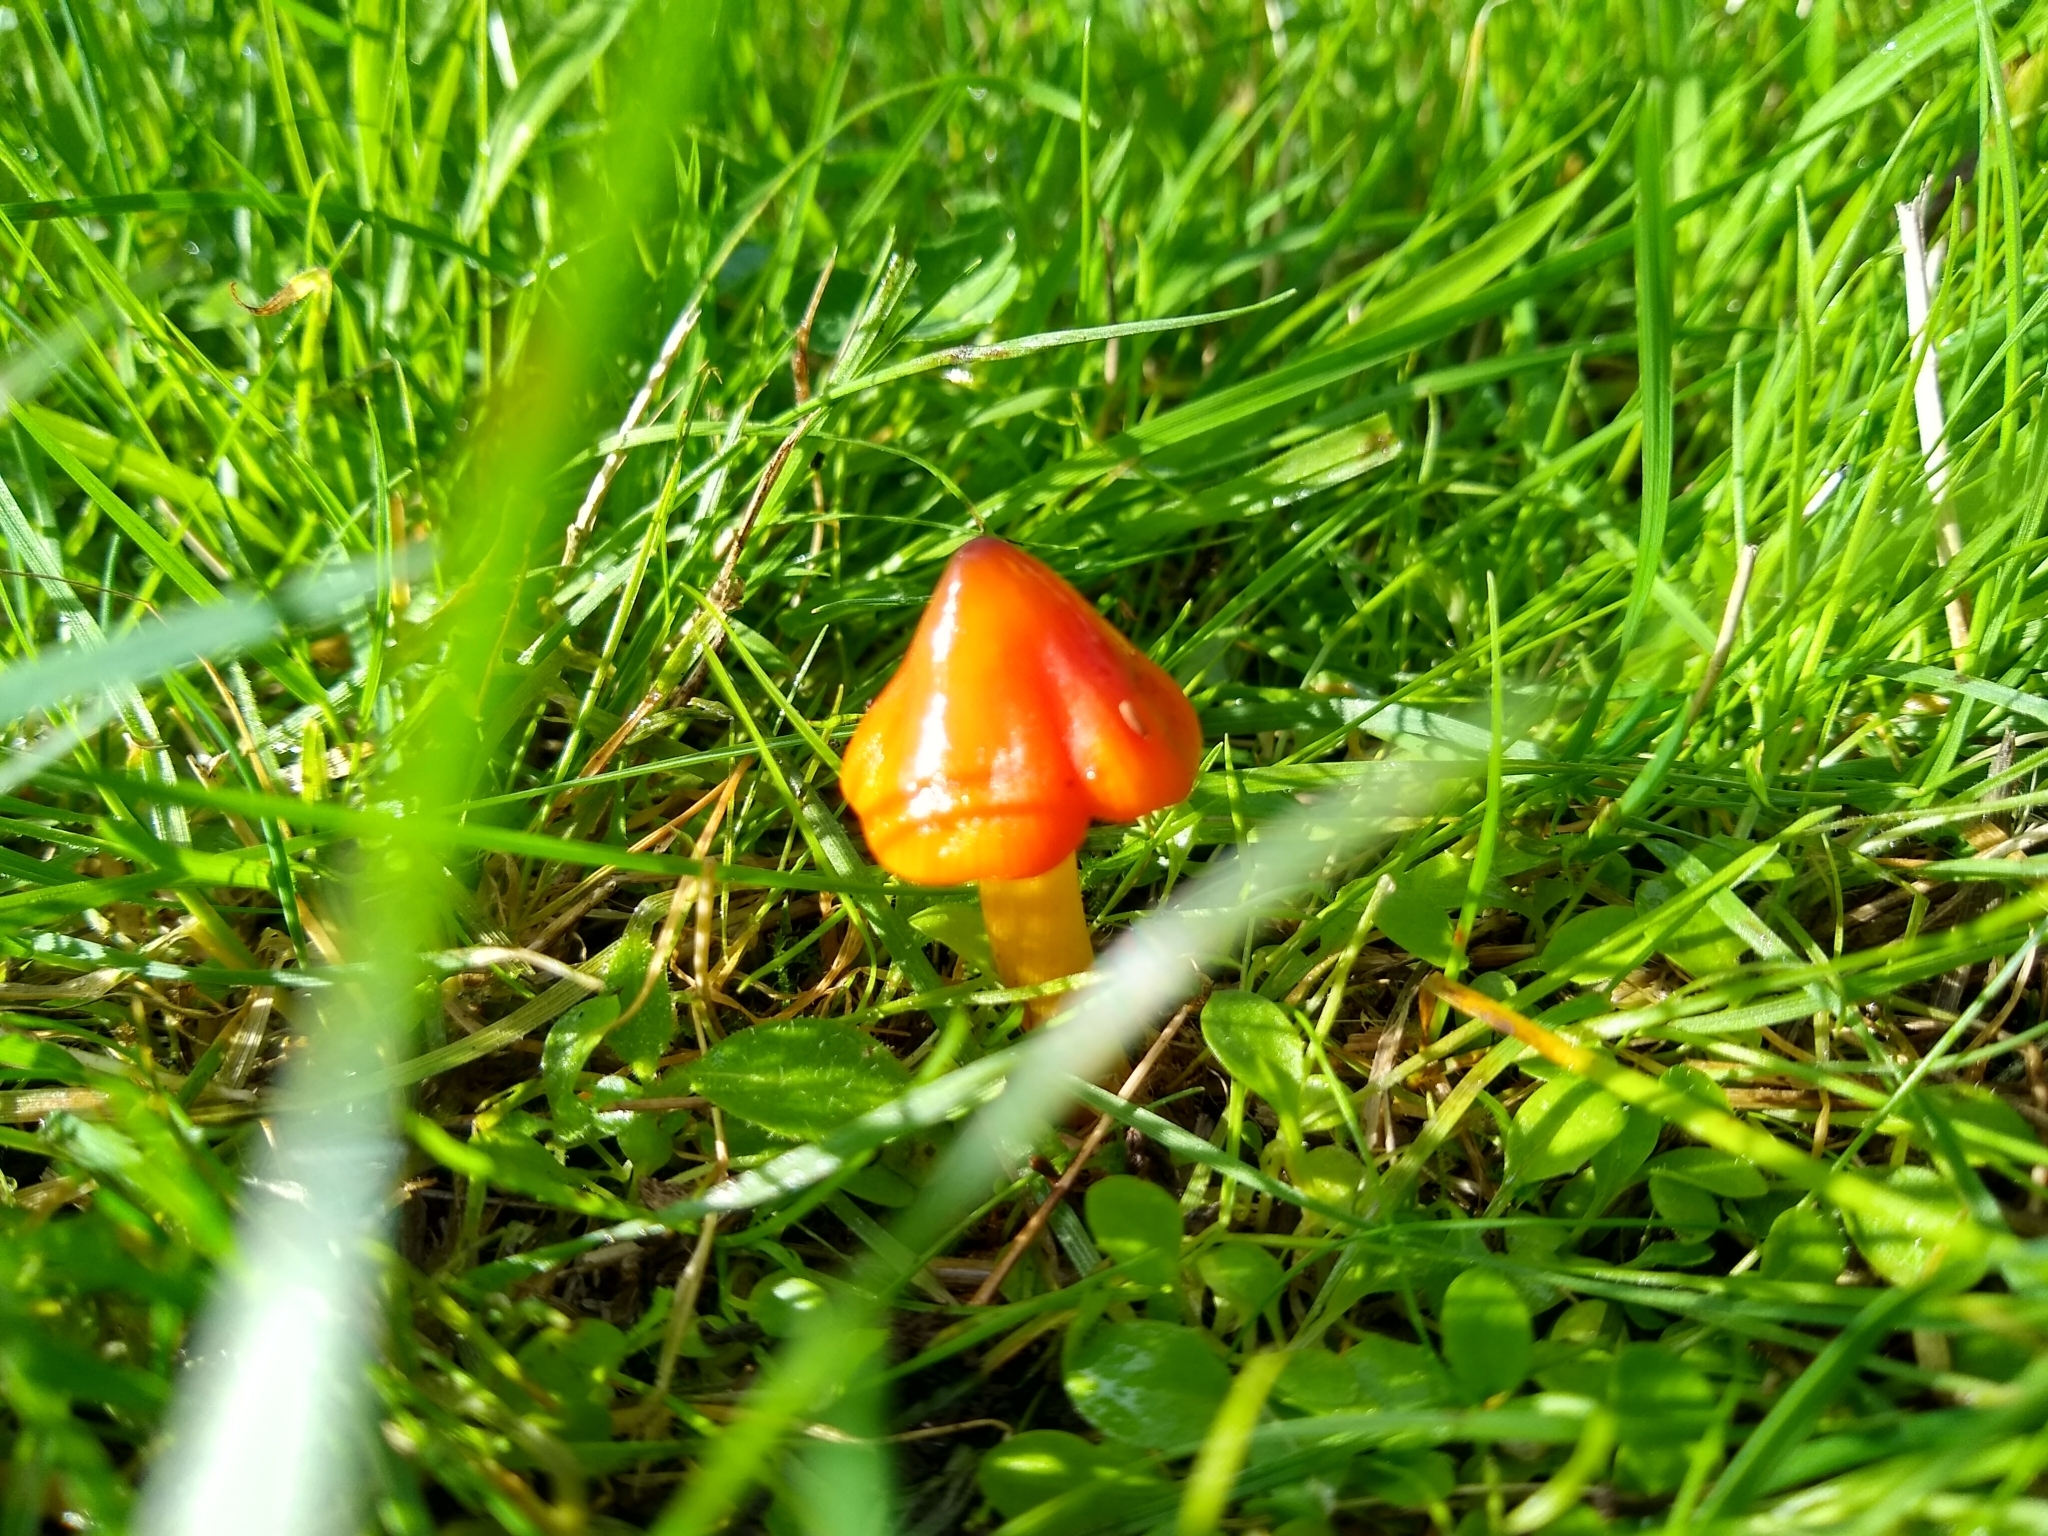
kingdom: Fungi
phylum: Basidiomycota
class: Agaricomycetes
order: Agaricales
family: Hygrophoraceae
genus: Hygrocybe
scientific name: Hygrocybe conica
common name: Blackening wax-cap
